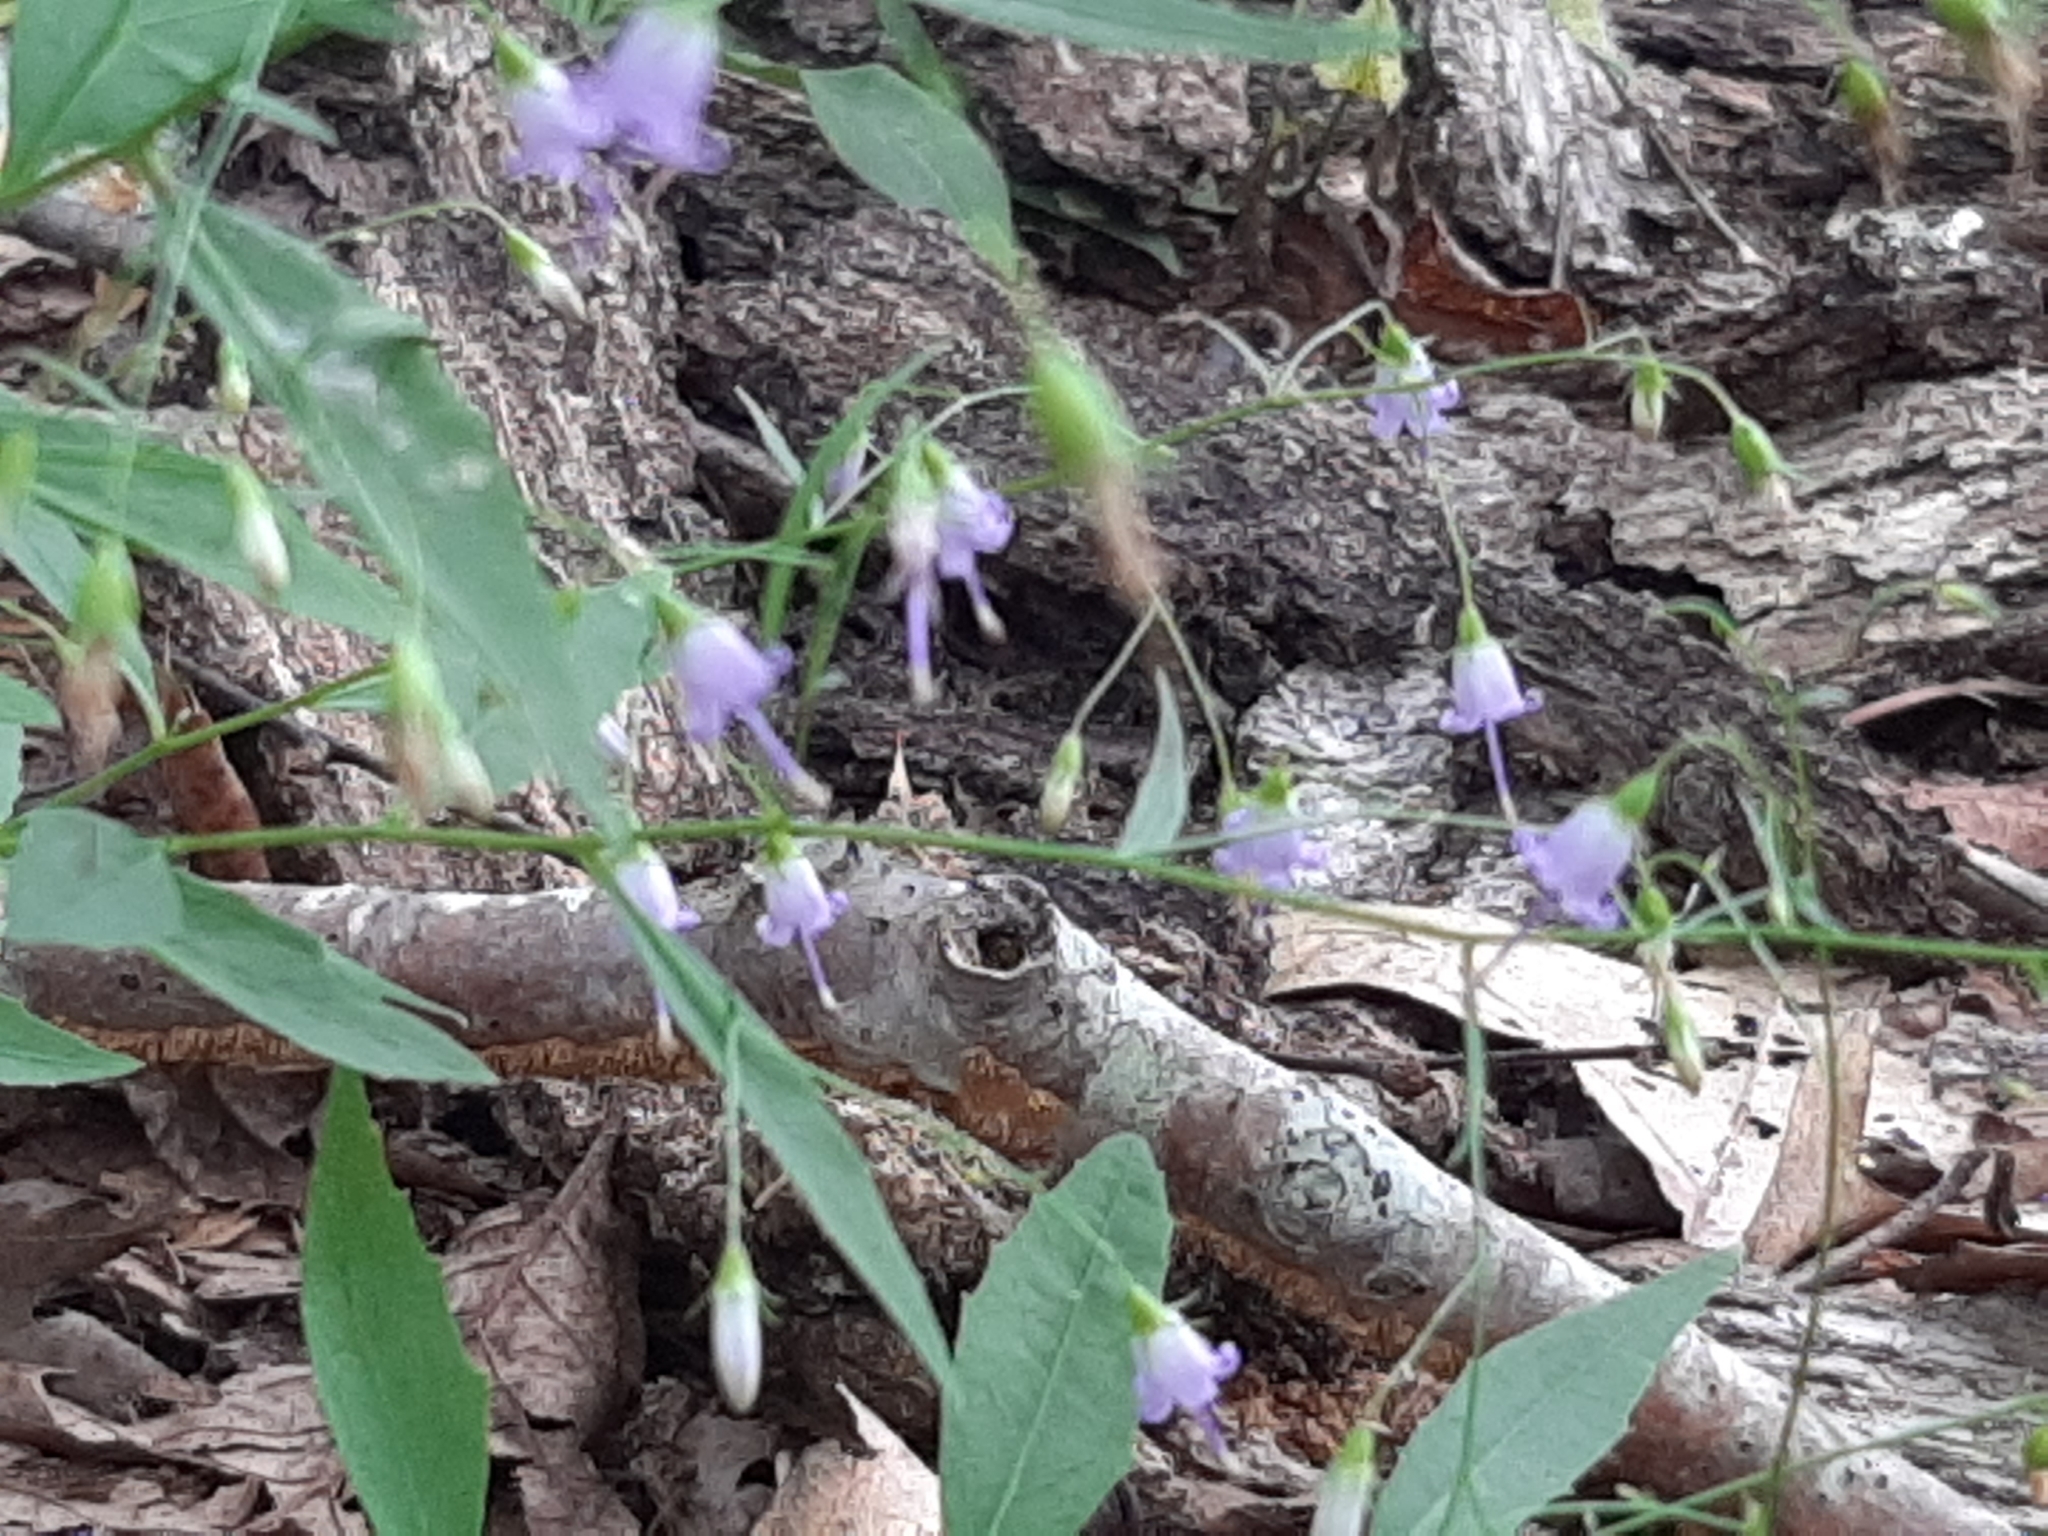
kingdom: Plantae
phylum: Tracheophyta
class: Magnoliopsida
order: Asterales
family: Campanulaceae
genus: Campanula
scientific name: Campanula divaricata
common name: Appalachian bellflower
